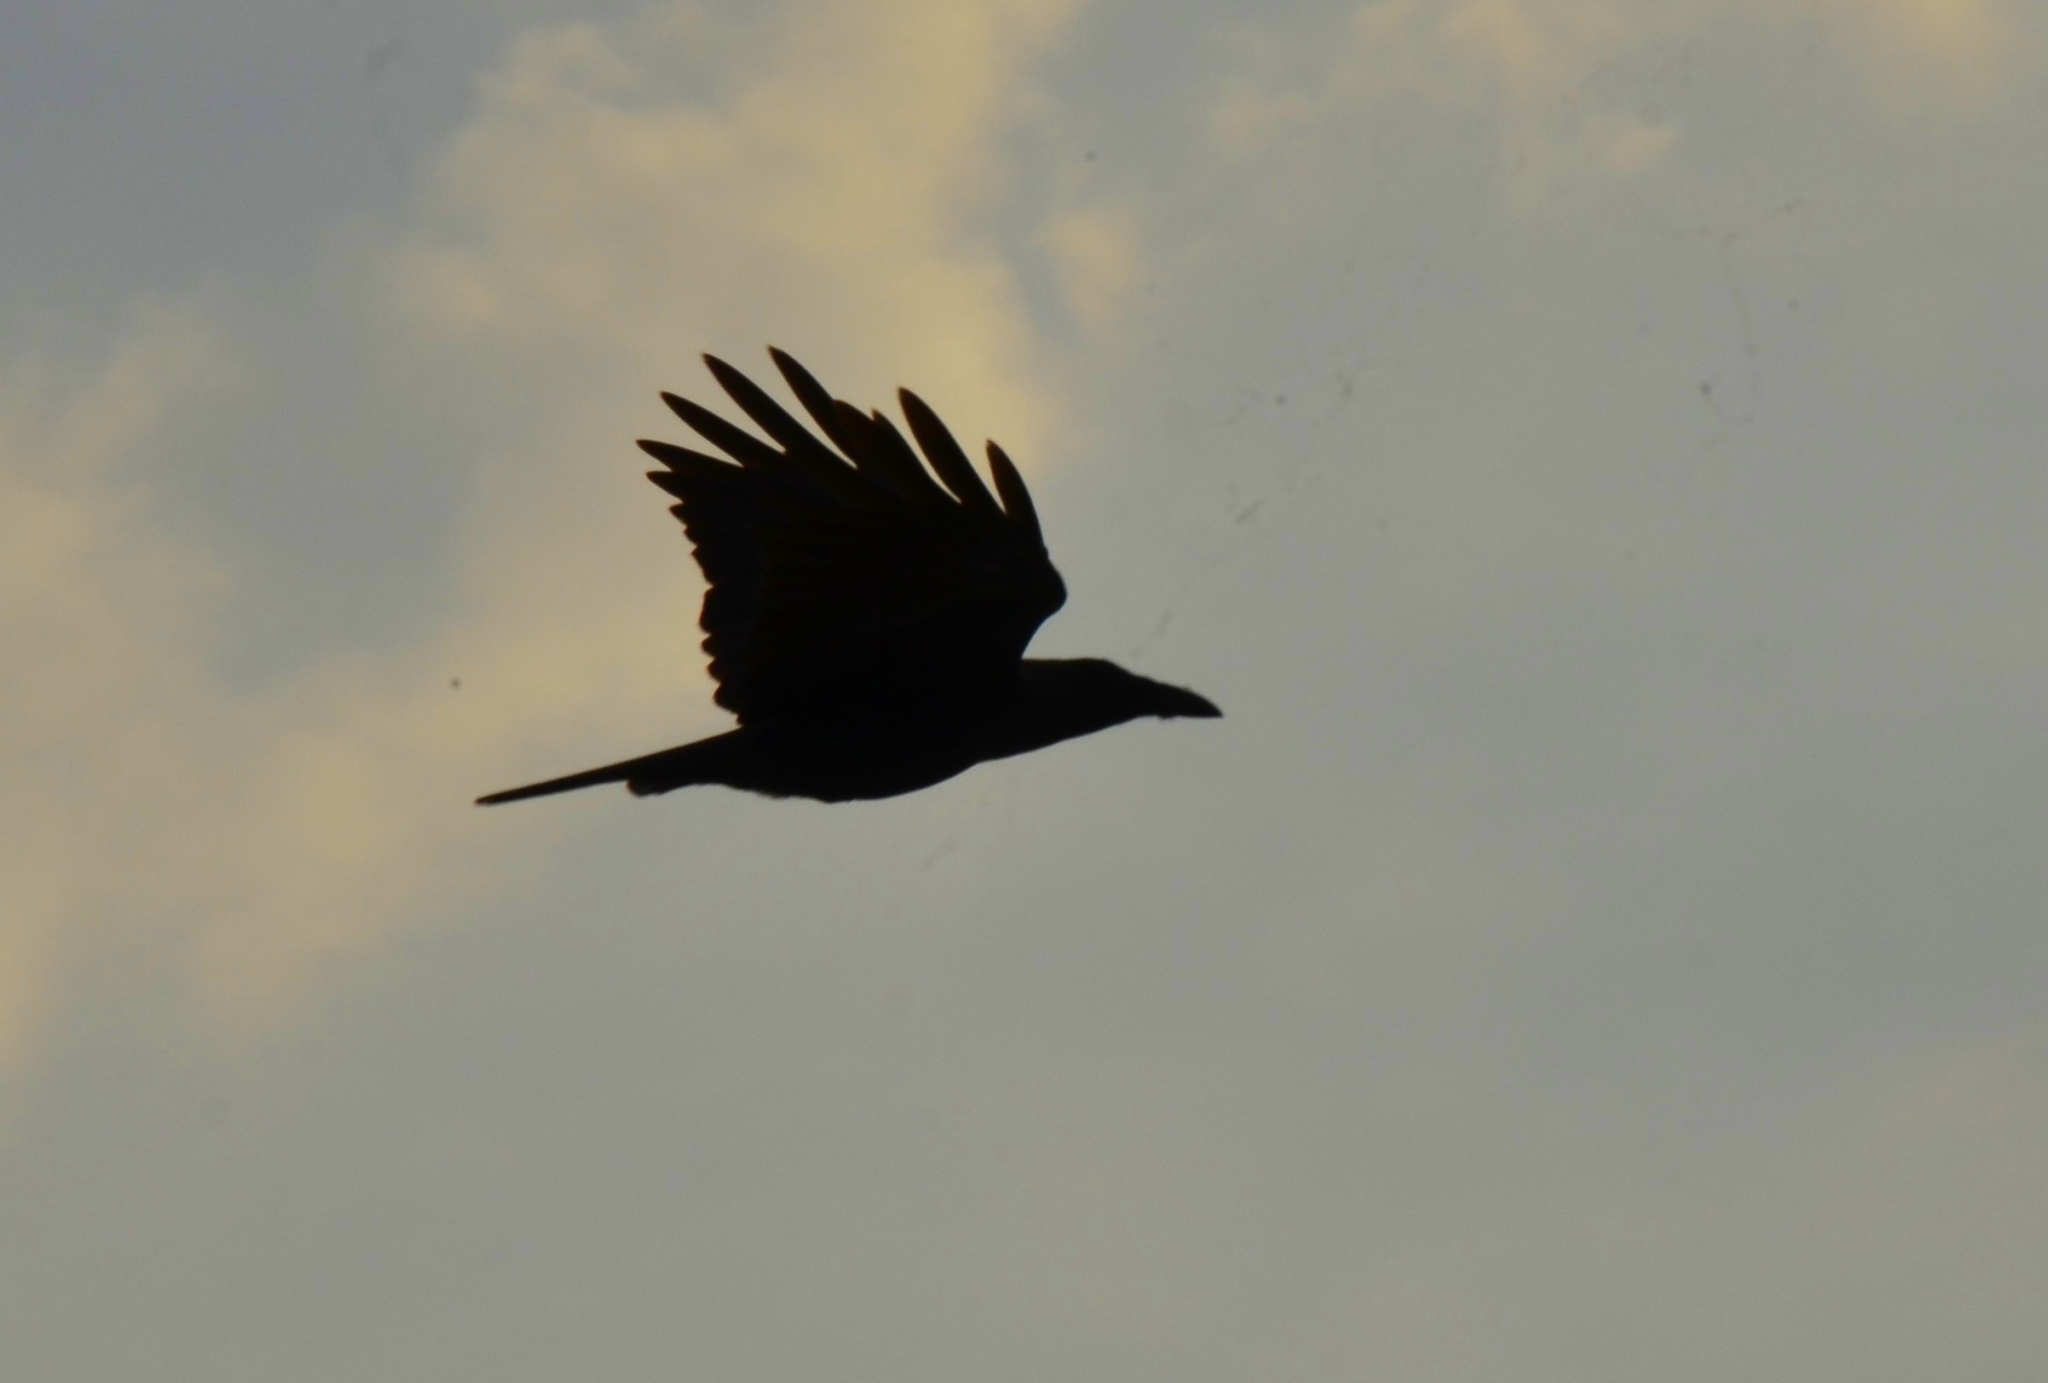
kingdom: Animalia
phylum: Chordata
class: Aves
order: Passeriformes
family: Corvidae
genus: Corvus
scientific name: Corvus splendens
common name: House crow
